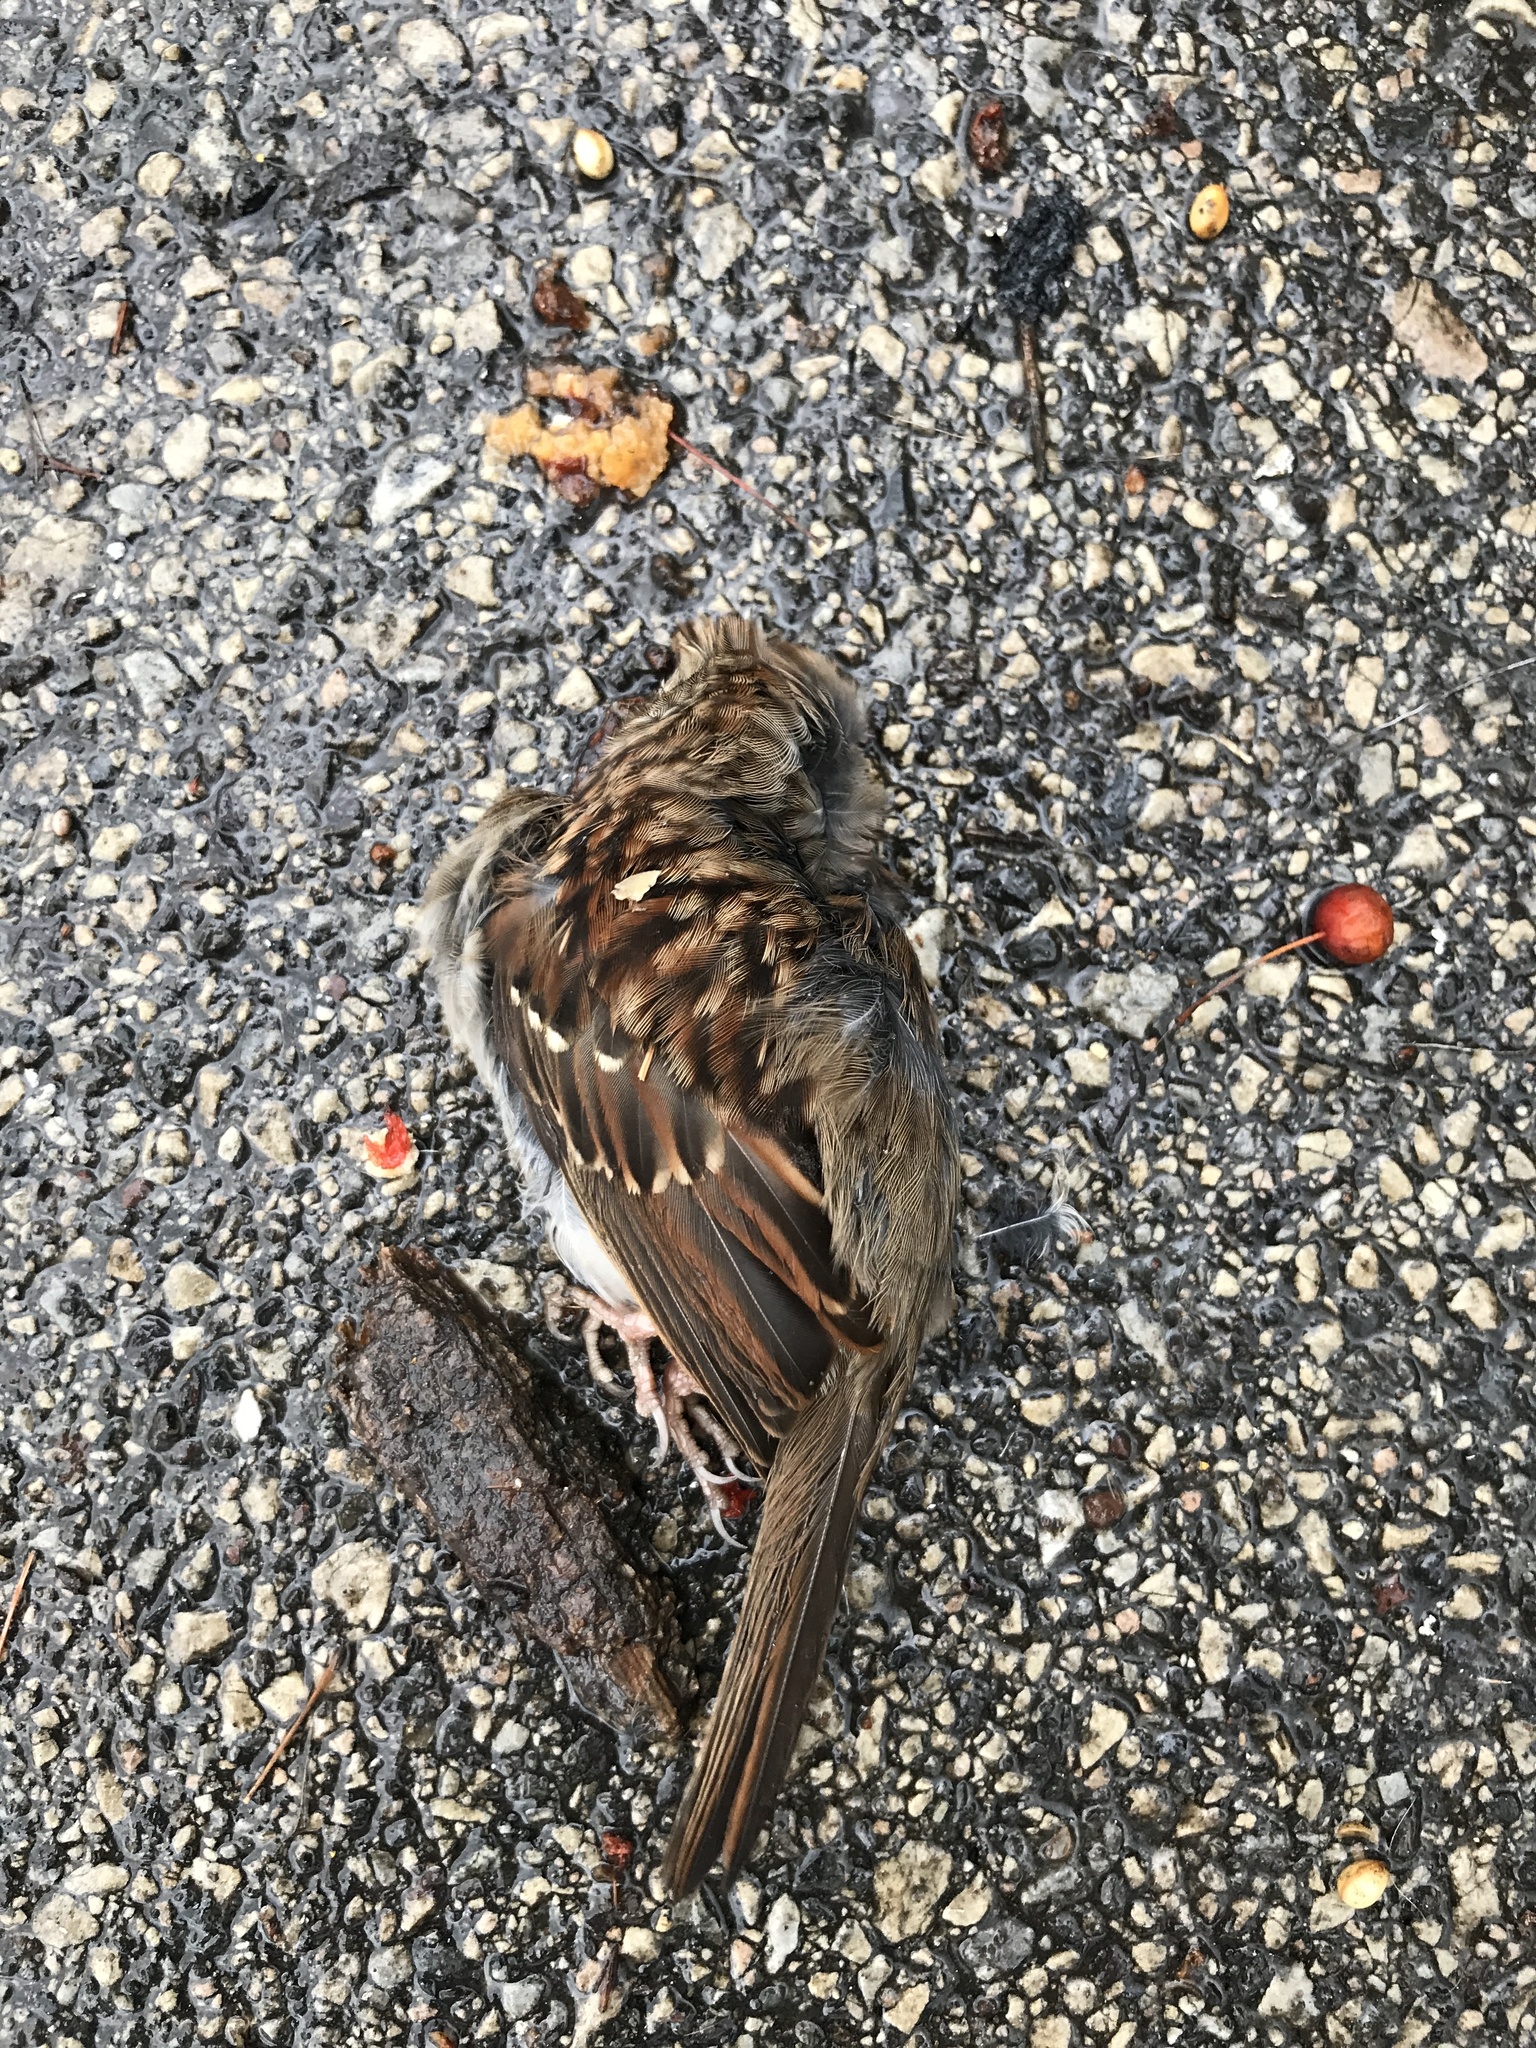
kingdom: Animalia
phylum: Chordata
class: Aves
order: Passeriformes
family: Passerellidae
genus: Zonotrichia
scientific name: Zonotrichia albicollis
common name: White-throated sparrow
